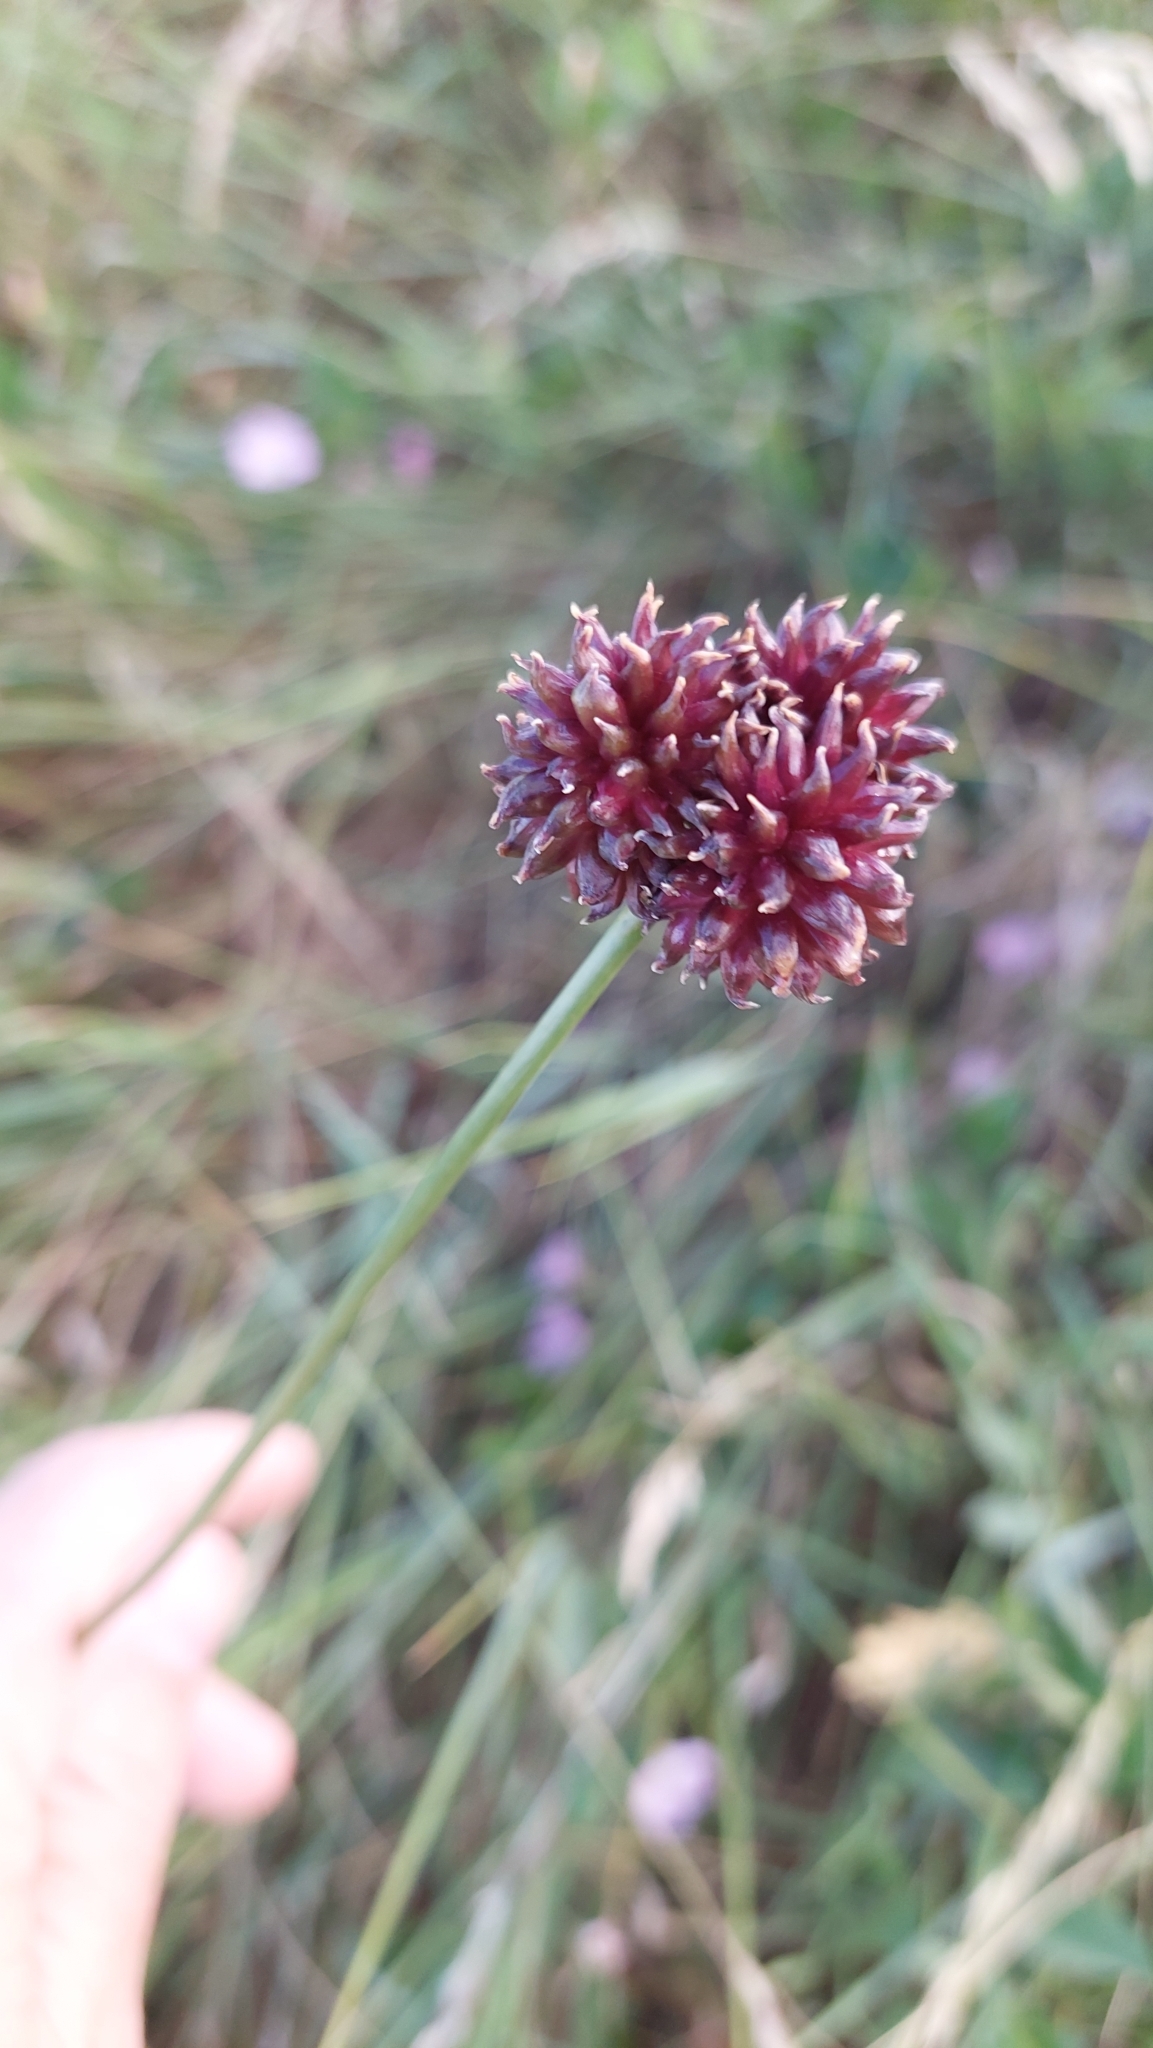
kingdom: Plantae
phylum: Tracheophyta
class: Liliopsida
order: Asparagales
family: Amaryllidaceae
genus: Allium
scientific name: Allium vineale
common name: Crow garlic
